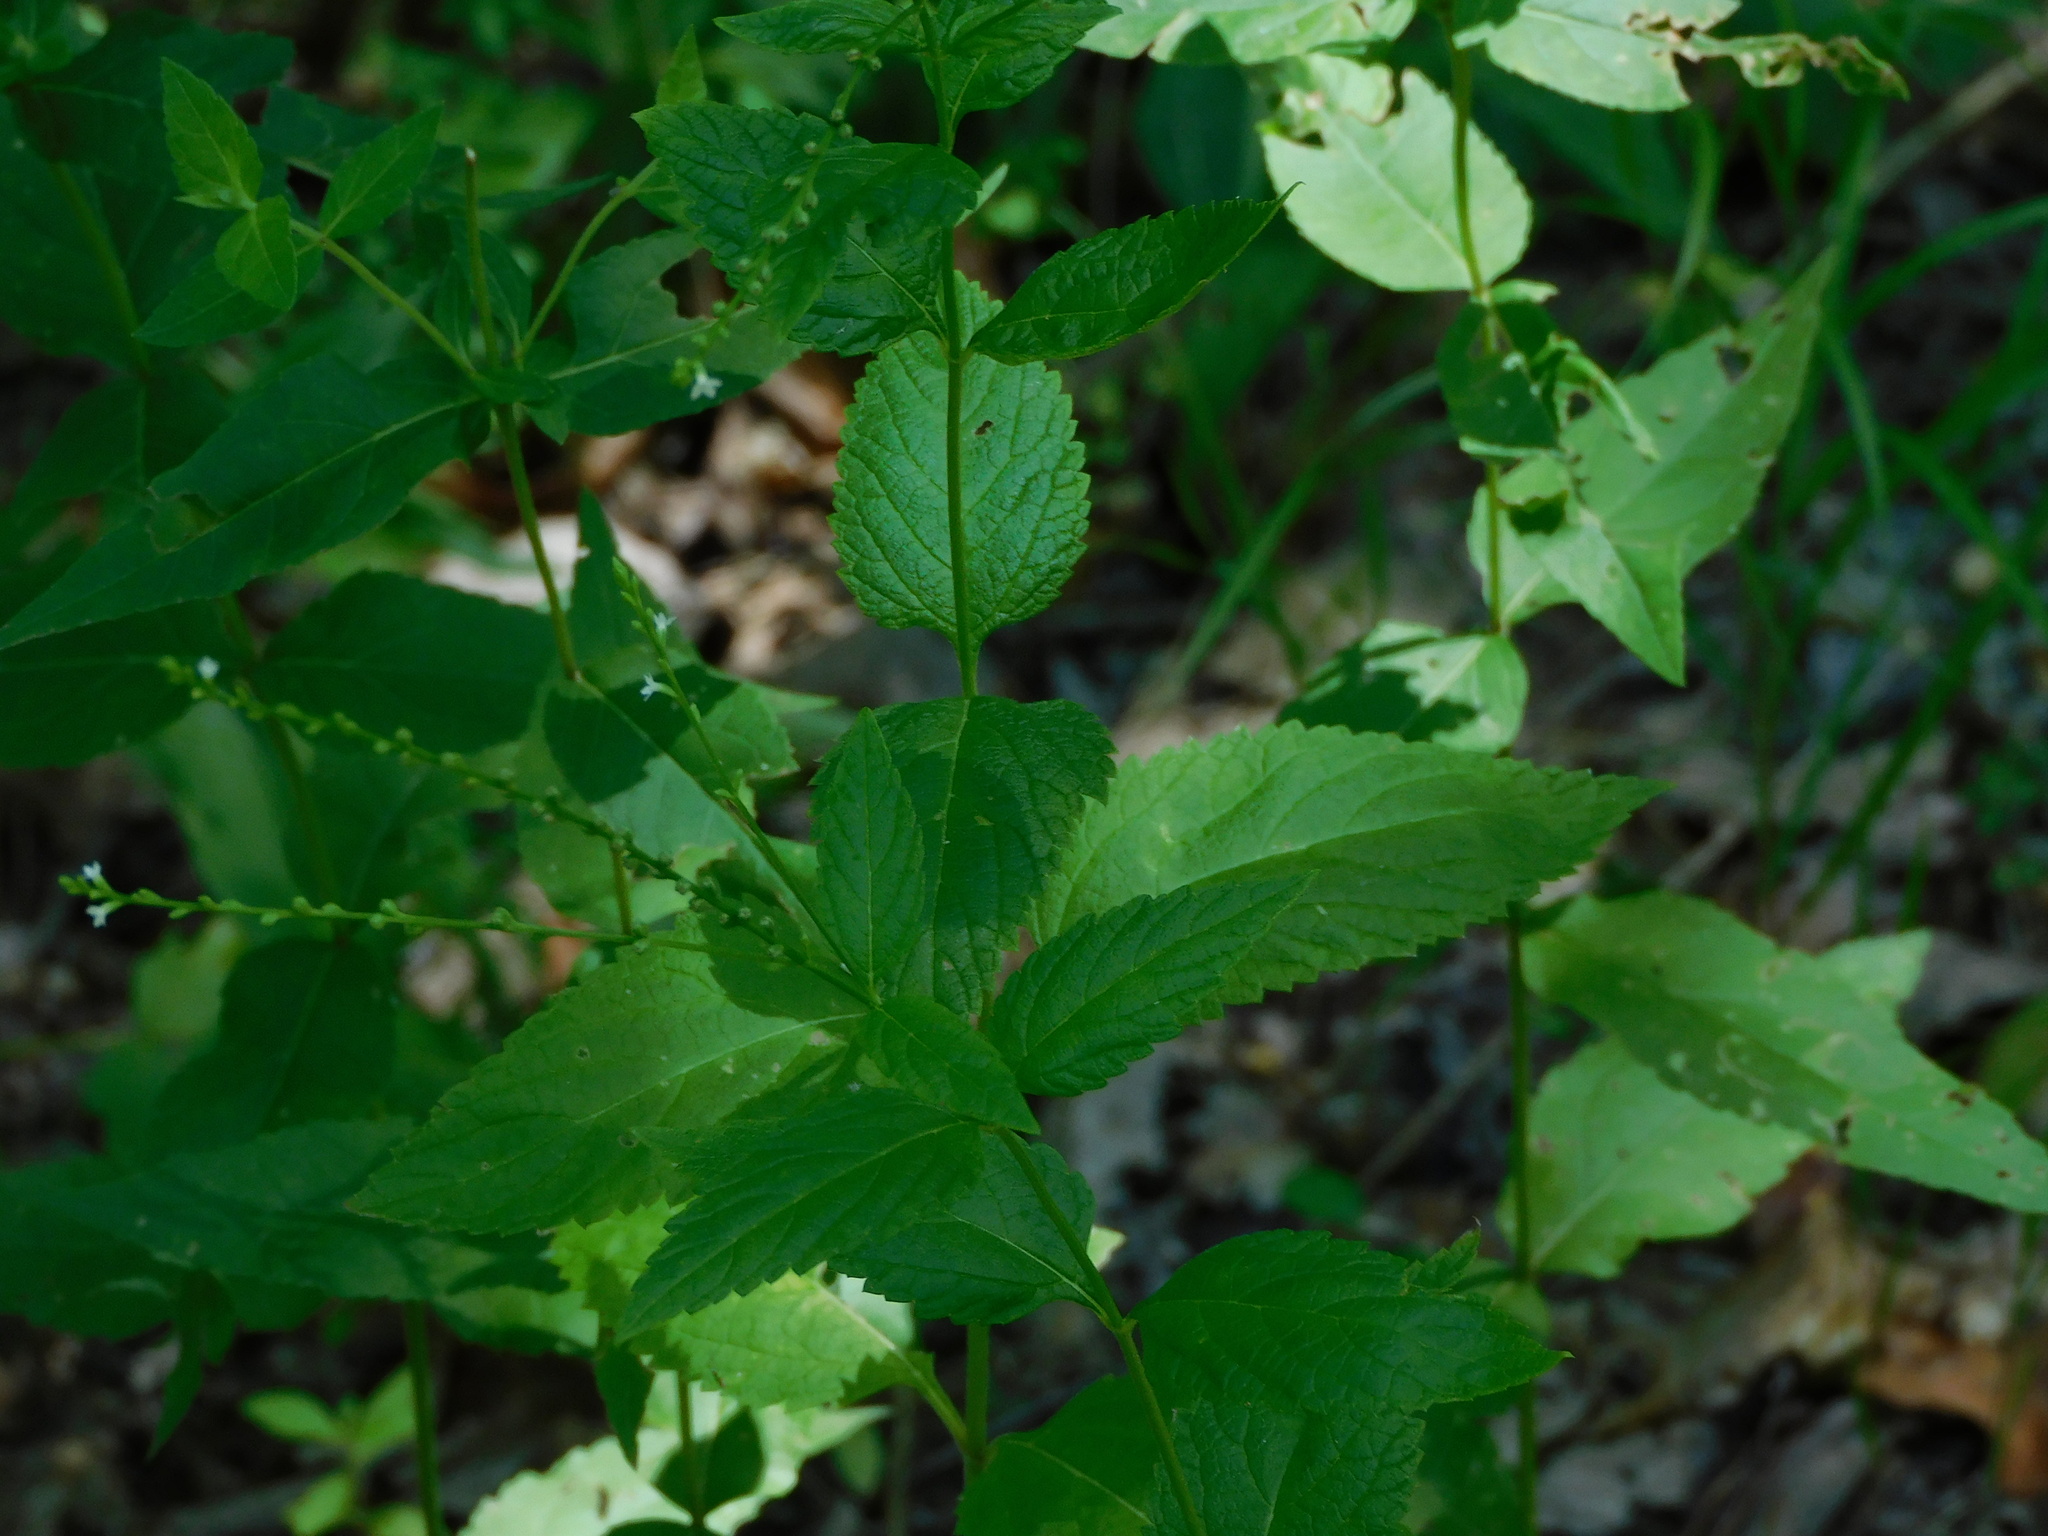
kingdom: Plantae
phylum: Tracheophyta
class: Magnoliopsida
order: Lamiales
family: Verbenaceae
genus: Verbena
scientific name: Verbena urticifolia
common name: Nettle-leaved vervain
